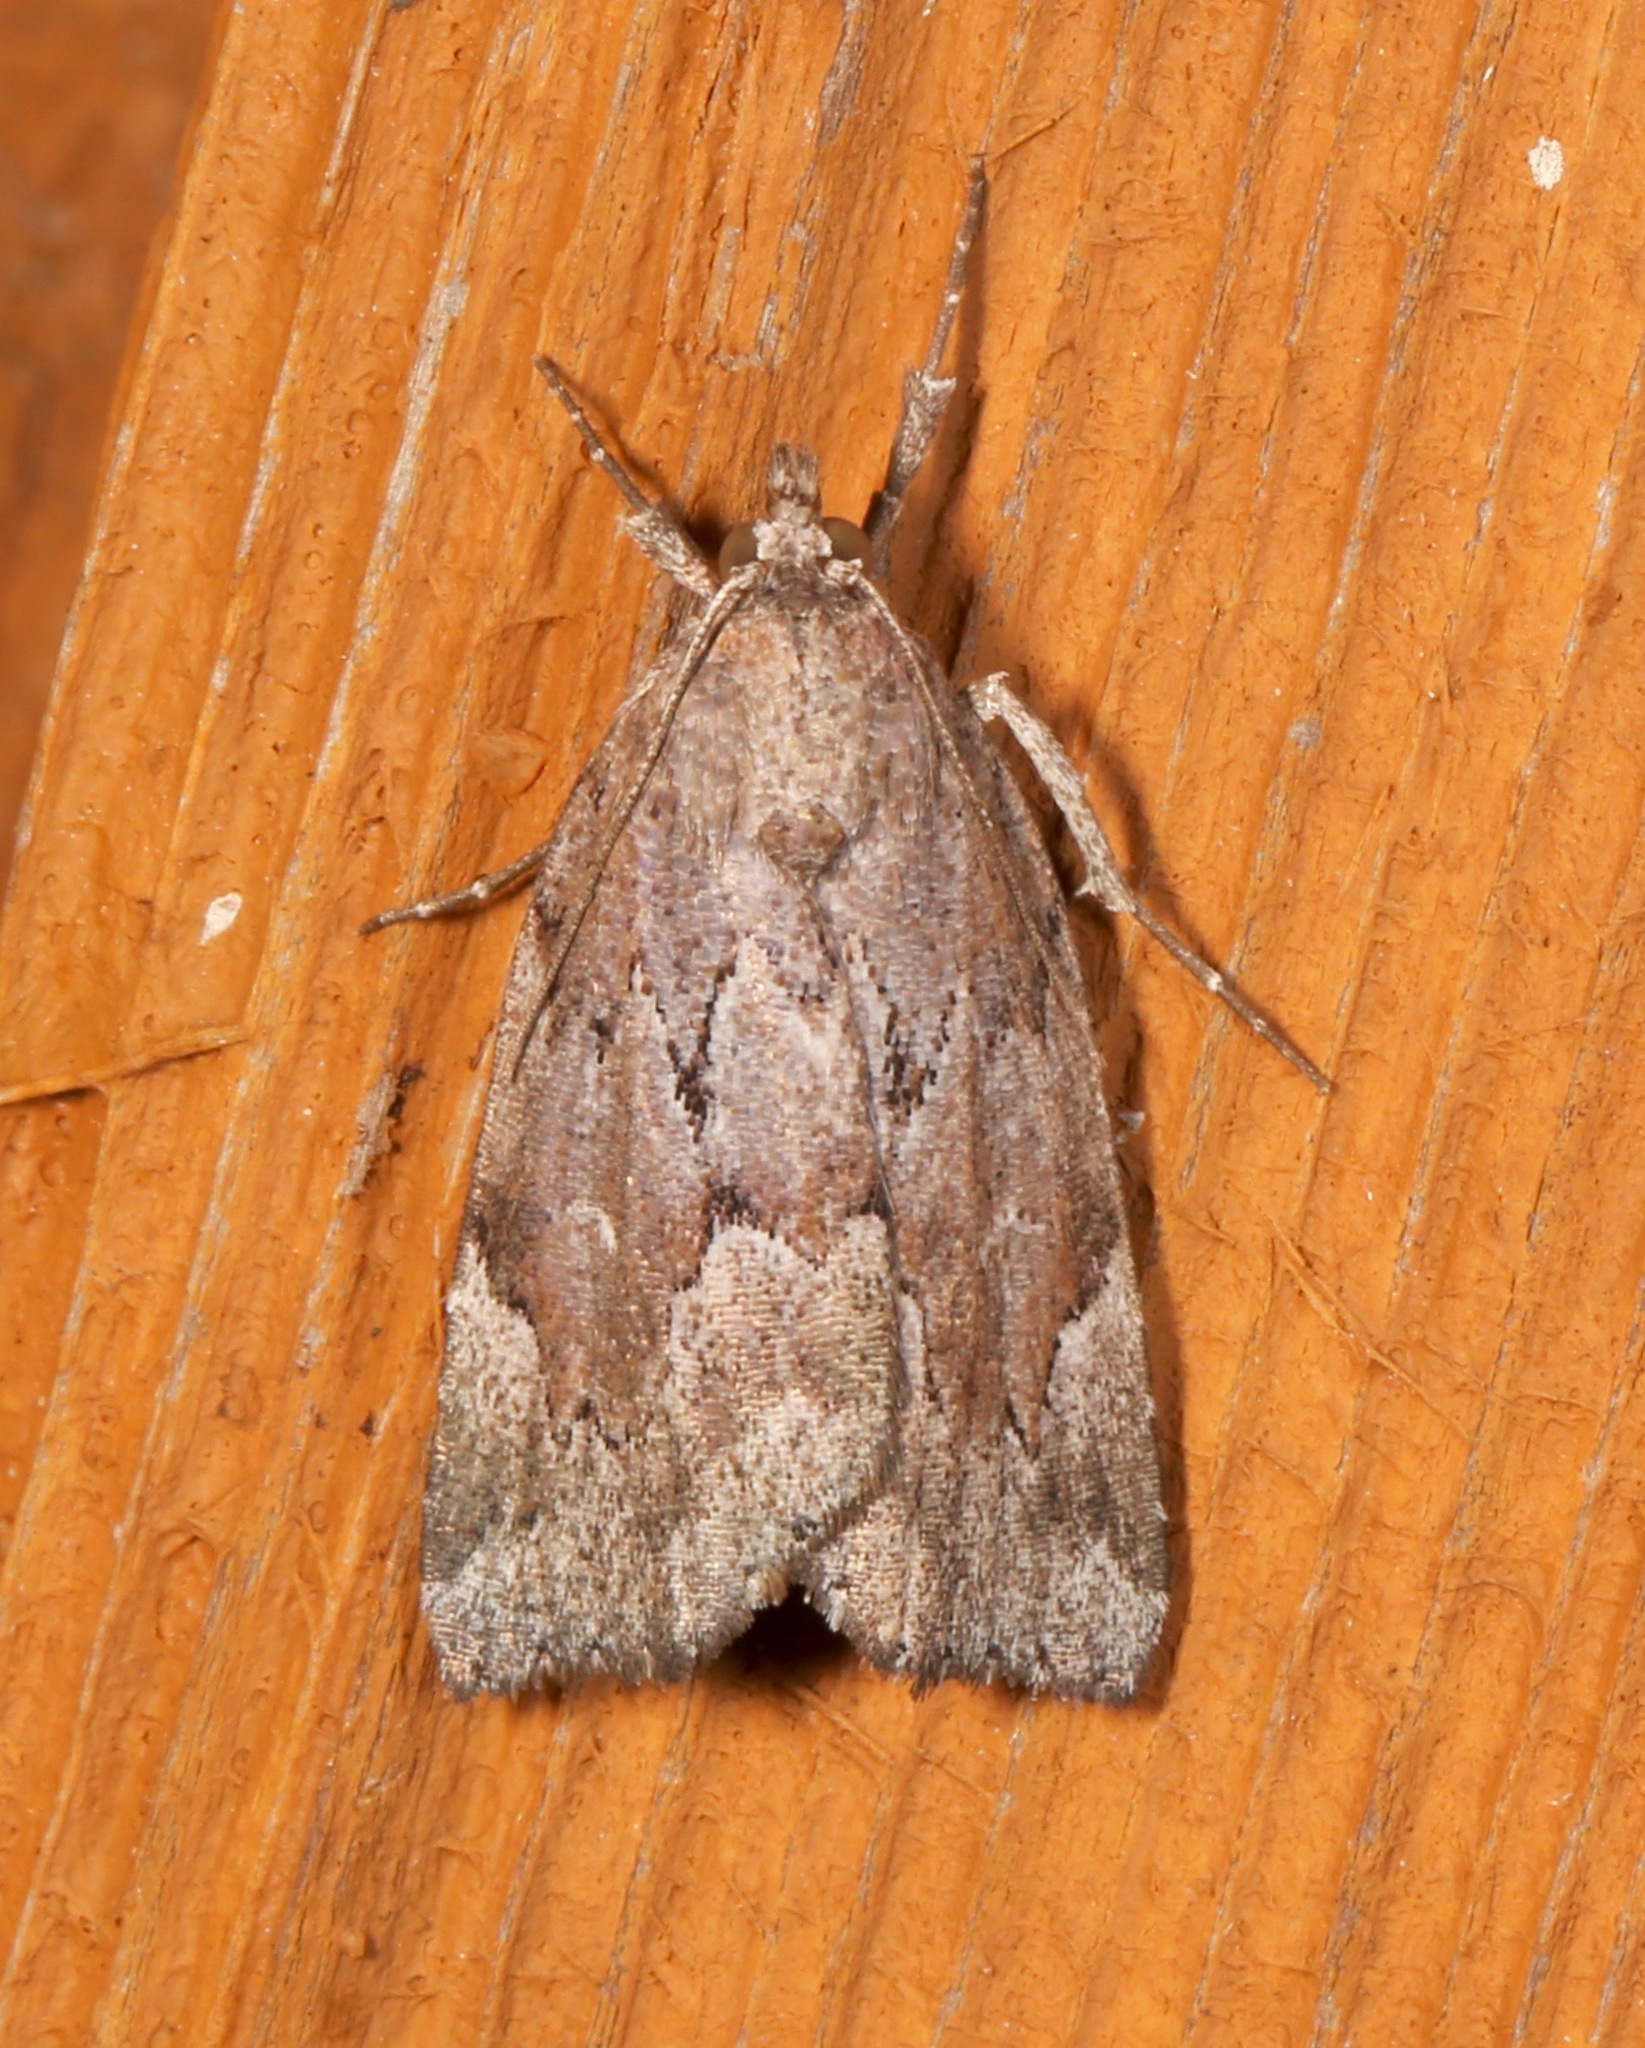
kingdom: Animalia
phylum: Arthropoda
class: Insecta
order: Lepidoptera
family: Erebidae
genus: Cutina
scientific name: Cutina albopunctella
